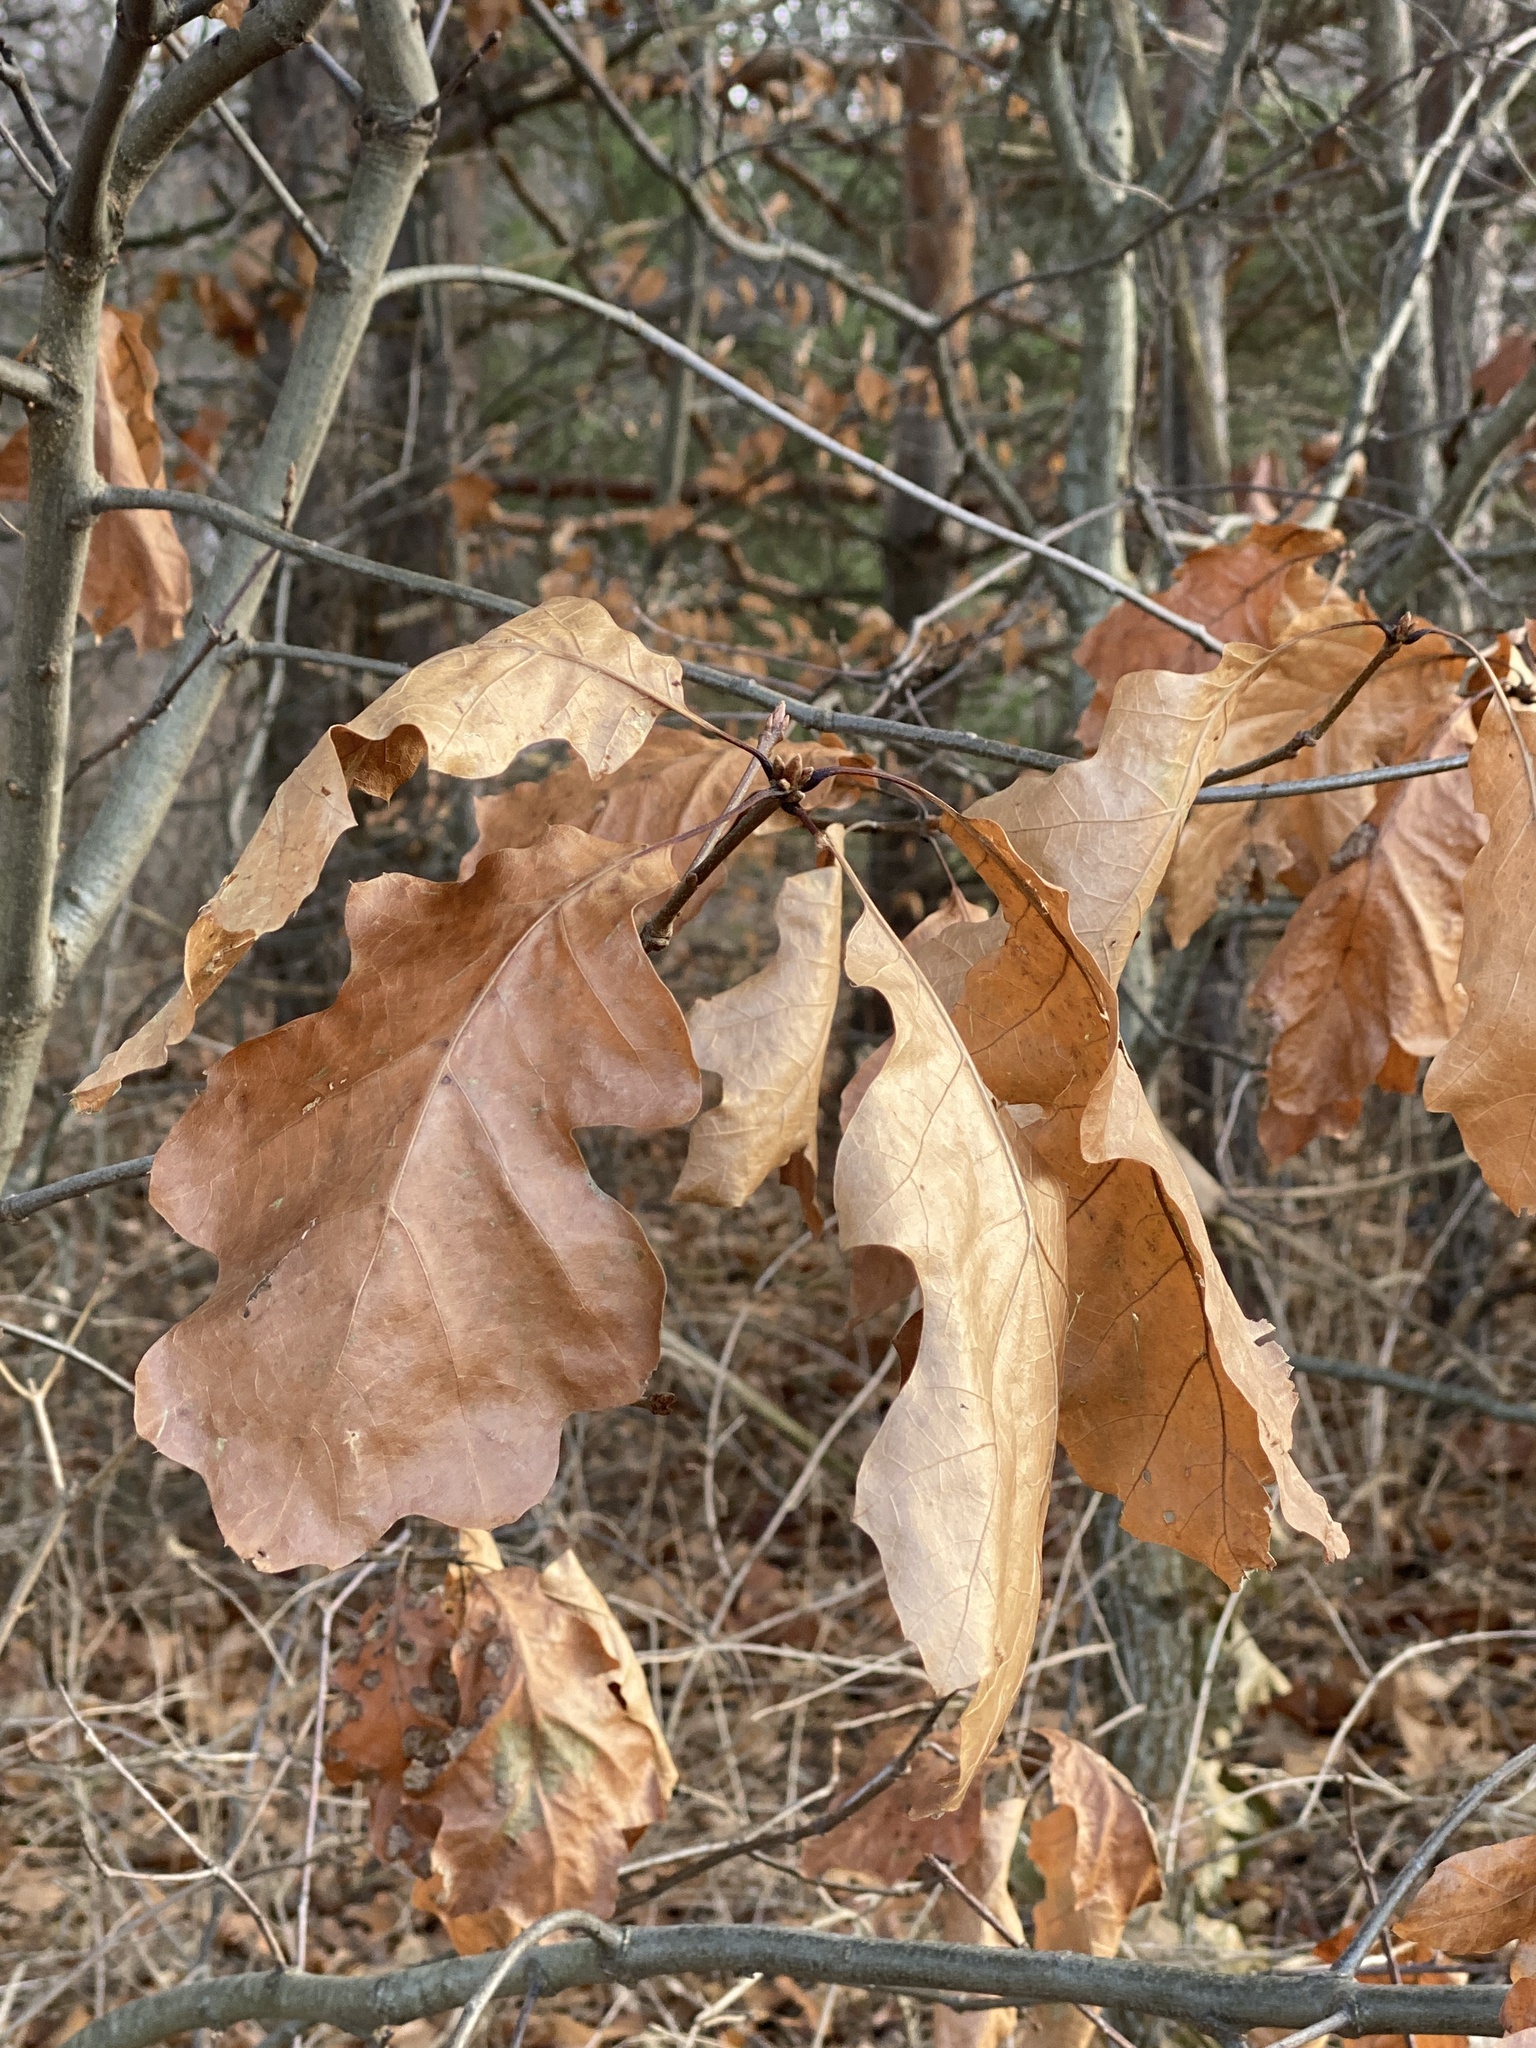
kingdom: Plantae
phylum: Tracheophyta
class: Magnoliopsida
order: Fagales
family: Fagaceae
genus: Quercus
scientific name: Quercus velutina
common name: Black oak
